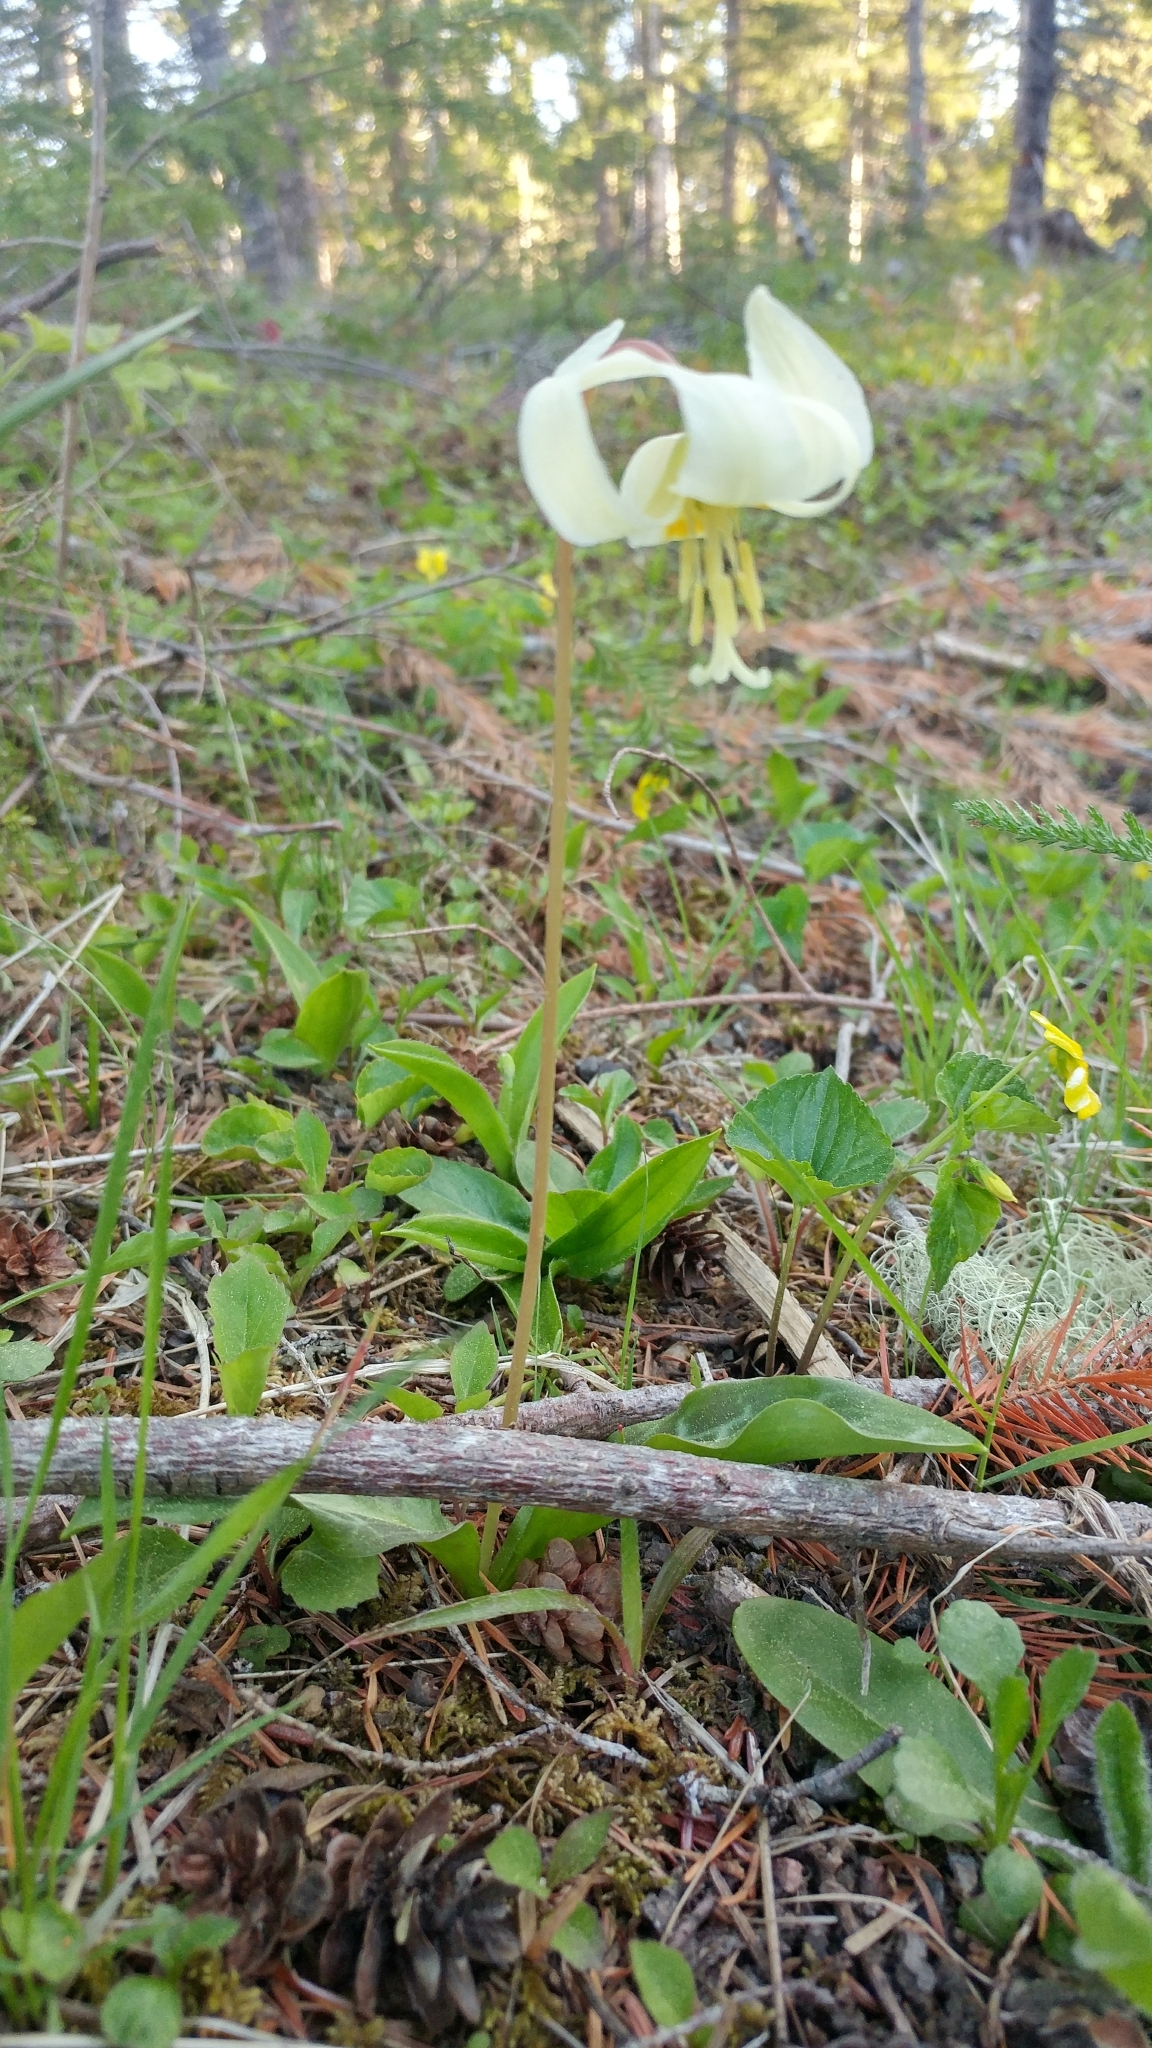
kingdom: Plantae
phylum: Tracheophyta
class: Liliopsida
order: Liliales
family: Liliaceae
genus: Erythronium
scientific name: Erythronium oregonum
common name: Giant adder's-tongue
